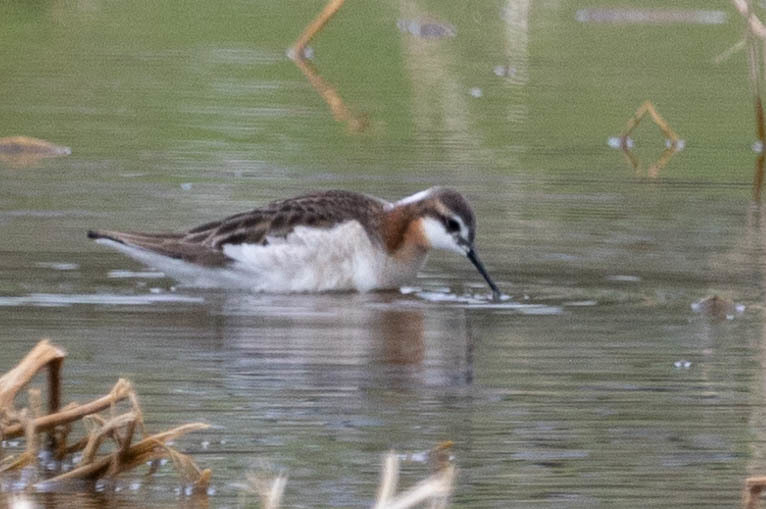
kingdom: Animalia
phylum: Chordata
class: Aves
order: Charadriiformes
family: Scolopacidae
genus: Phalaropus
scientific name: Phalaropus tricolor
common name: Wilson's phalarope
